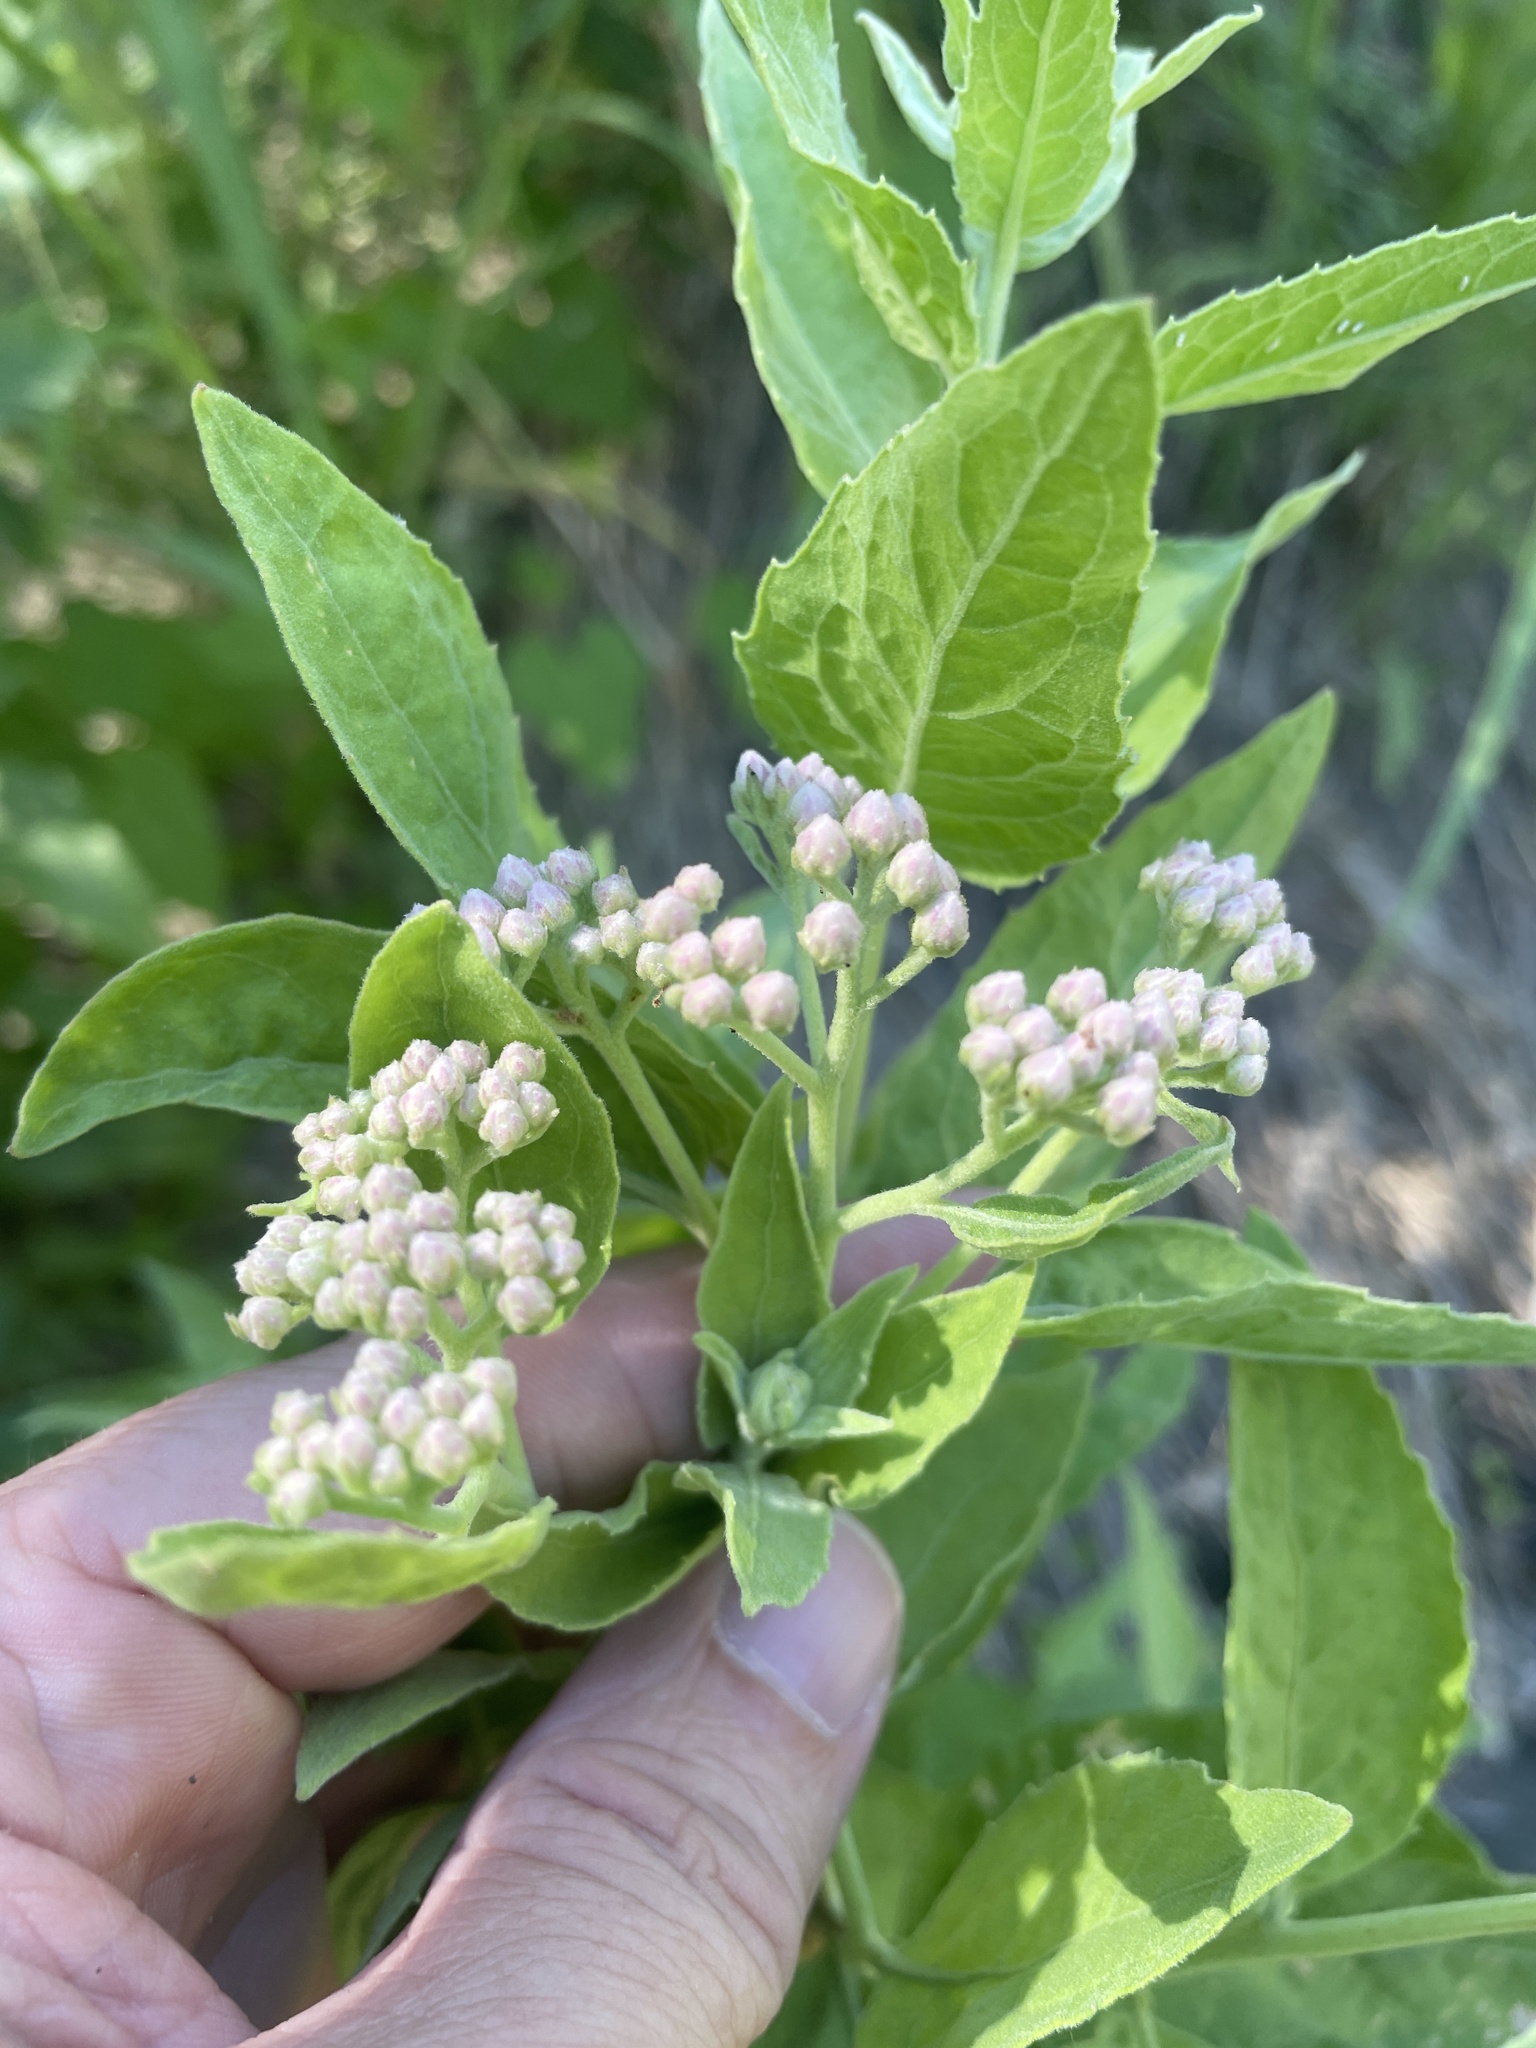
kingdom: Plantae
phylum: Tracheophyta
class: Magnoliopsida
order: Asterales
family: Asteraceae
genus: Pluchea
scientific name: Pluchea odorata
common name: Saltmarsh fleabane
